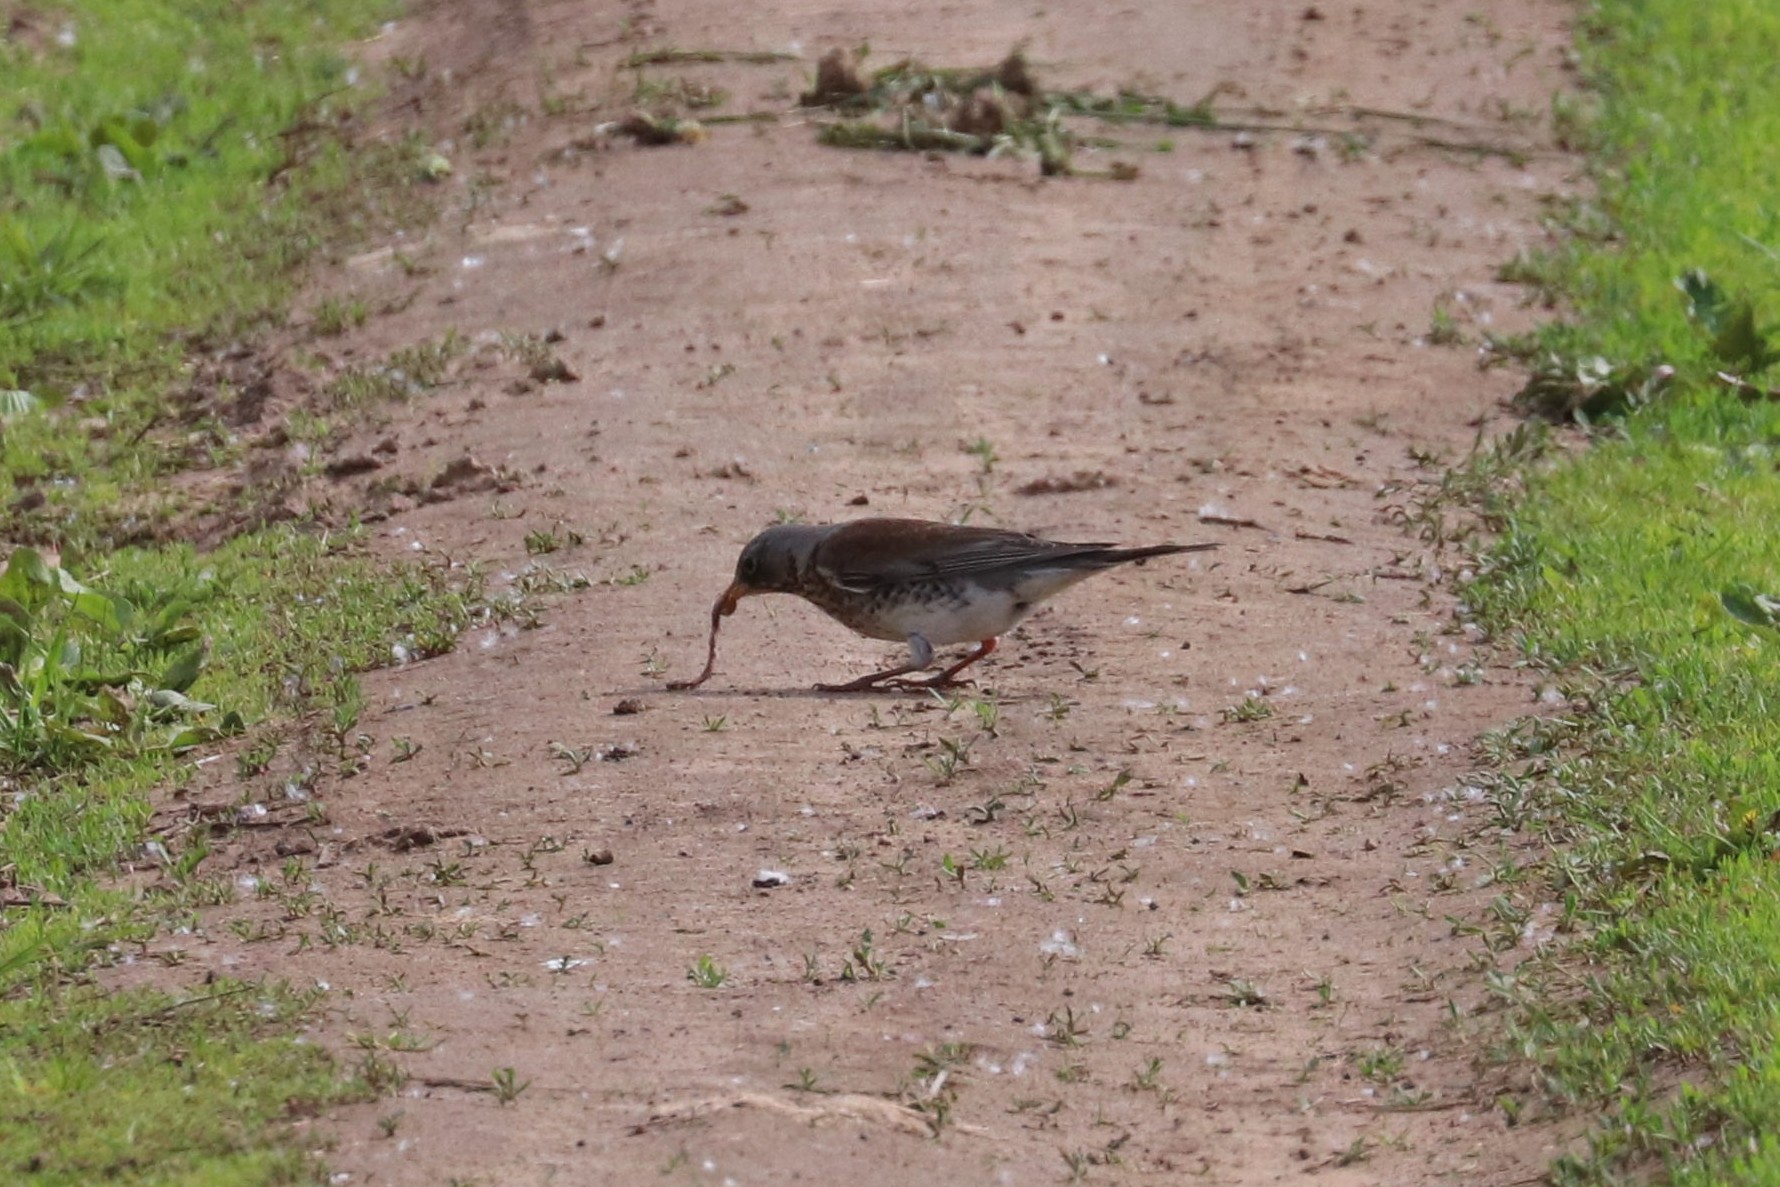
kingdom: Animalia
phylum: Chordata
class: Aves
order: Passeriformes
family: Turdidae
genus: Turdus
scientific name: Turdus pilaris
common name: Fieldfare
